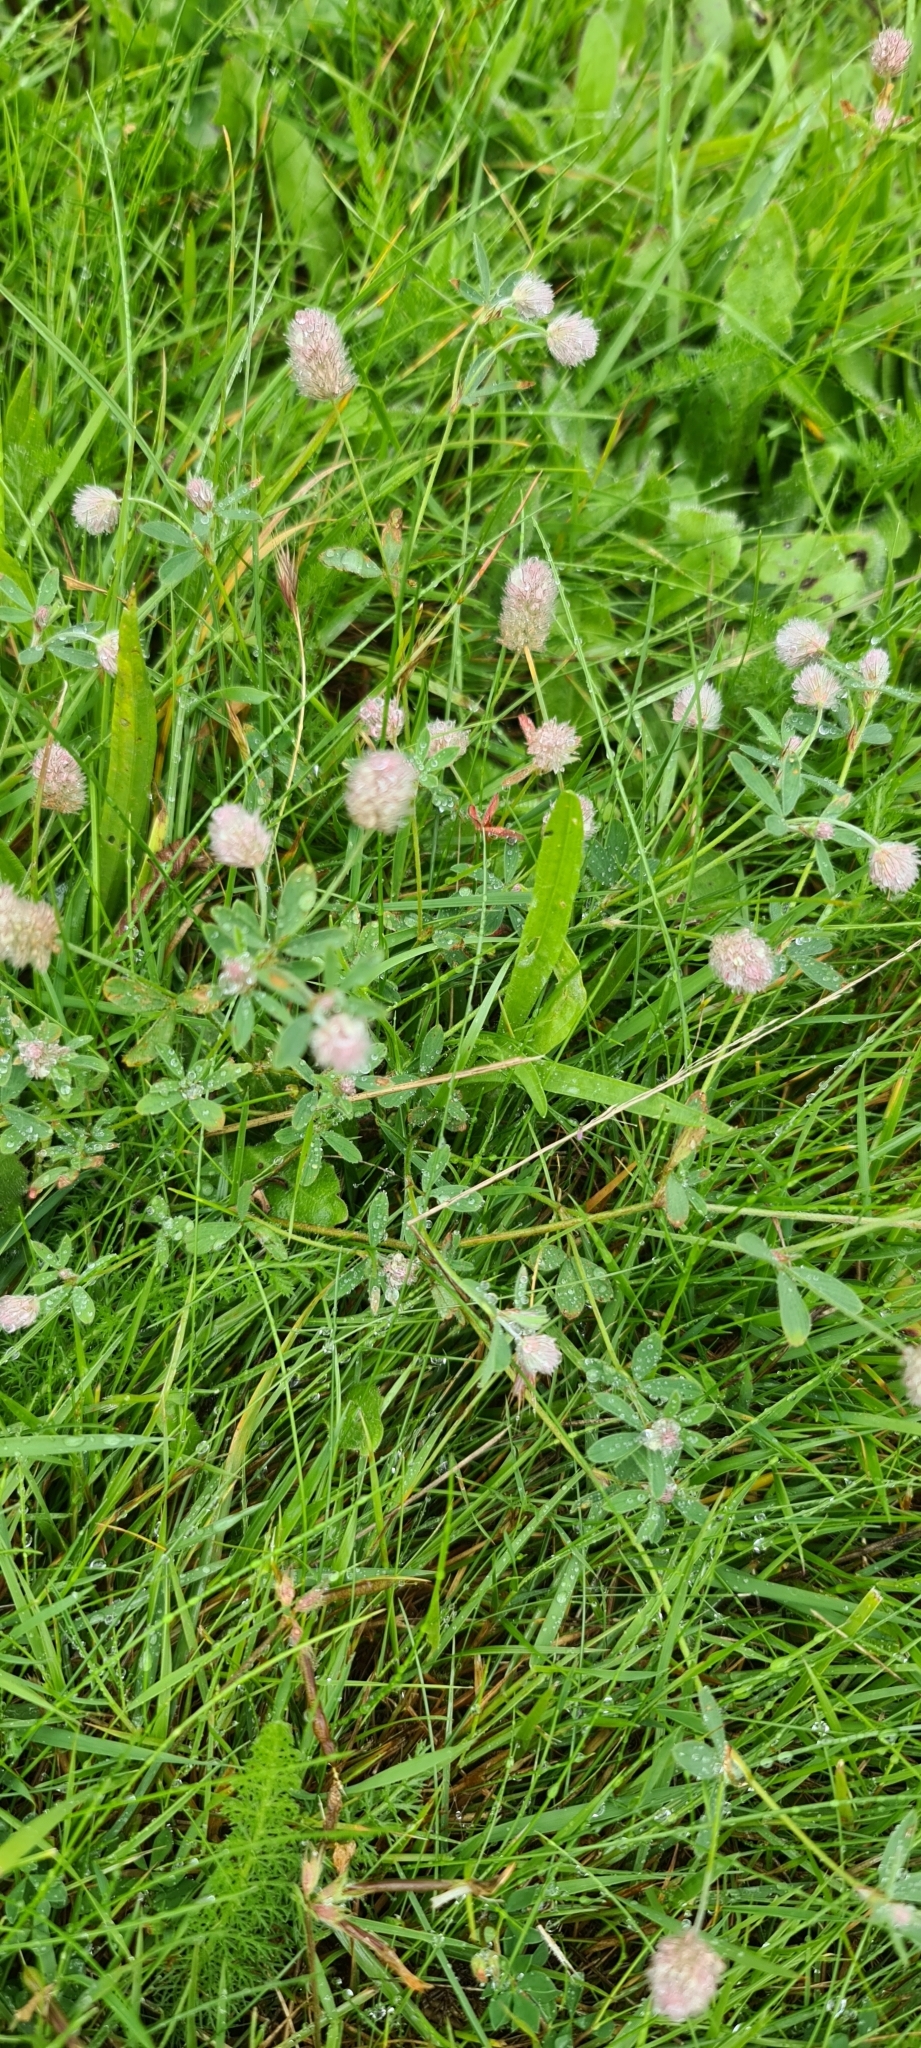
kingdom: Plantae
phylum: Tracheophyta
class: Magnoliopsida
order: Fabales
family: Fabaceae
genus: Trifolium
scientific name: Trifolium arvense
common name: Hare's-foot clover
